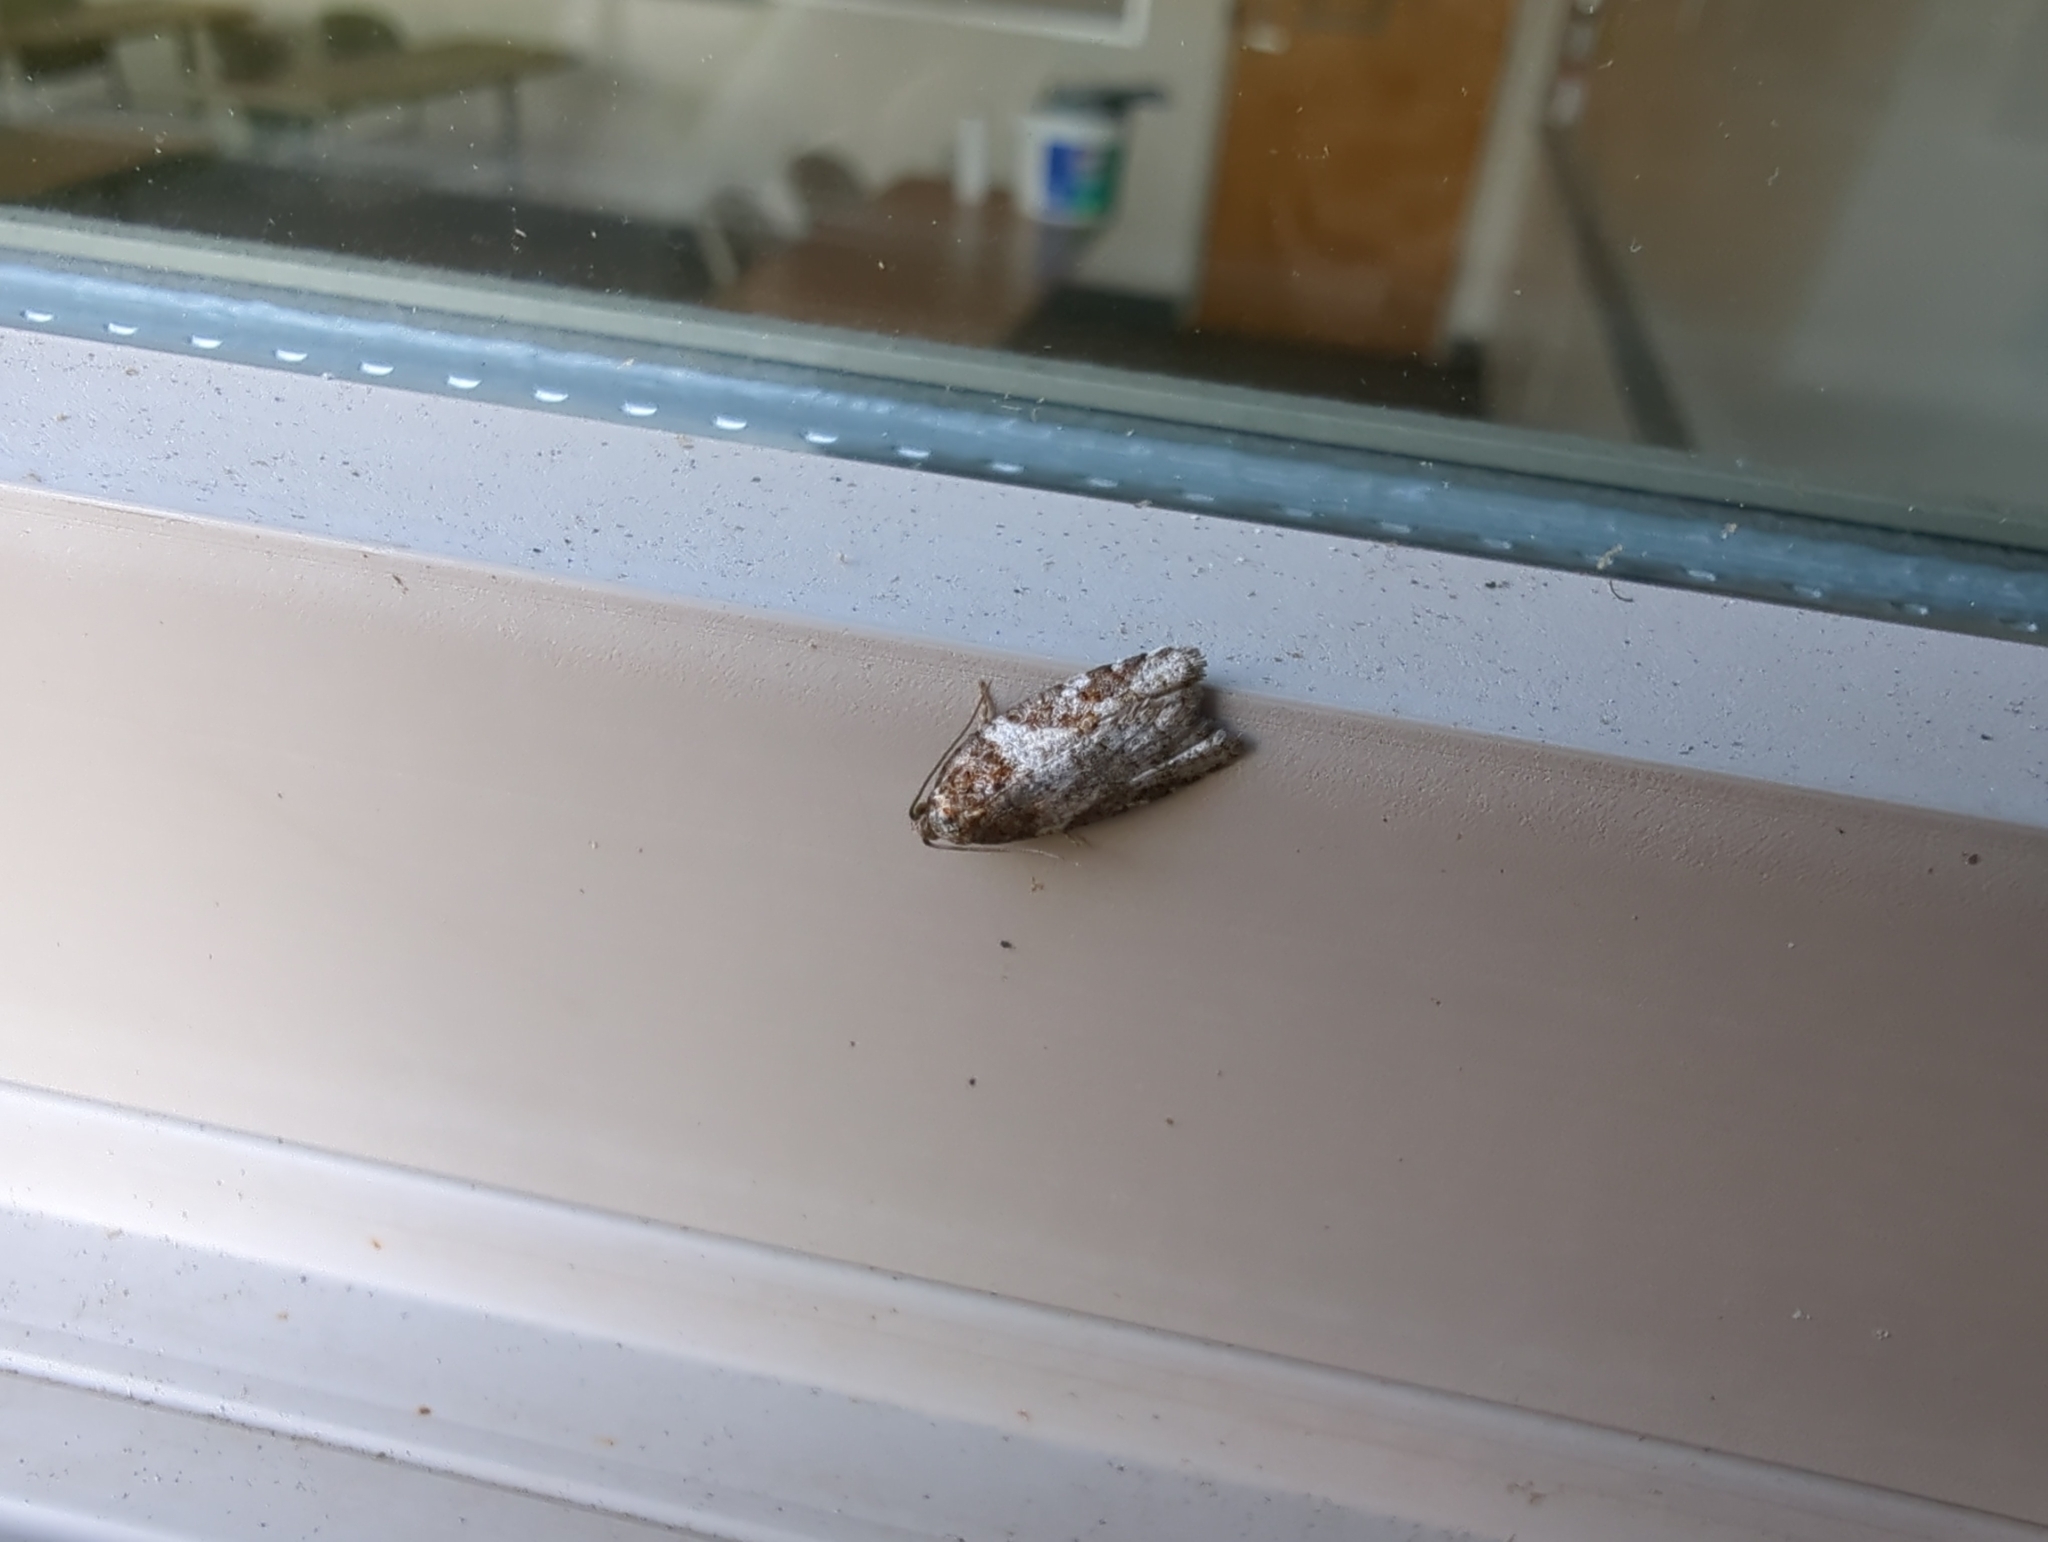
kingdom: Animalia
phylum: Arthropoda
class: Insecta
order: Lepidoptera
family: Tortricidae
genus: Acleris
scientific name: Acleris gloveranus
